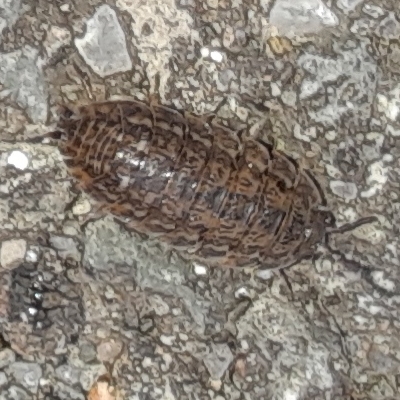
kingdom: Animalia
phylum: Arthropoda
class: Malacostraca
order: Isopoda
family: Trachelipodidae
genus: Trachelipus
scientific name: Trachelipus rathkii
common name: Isopod
